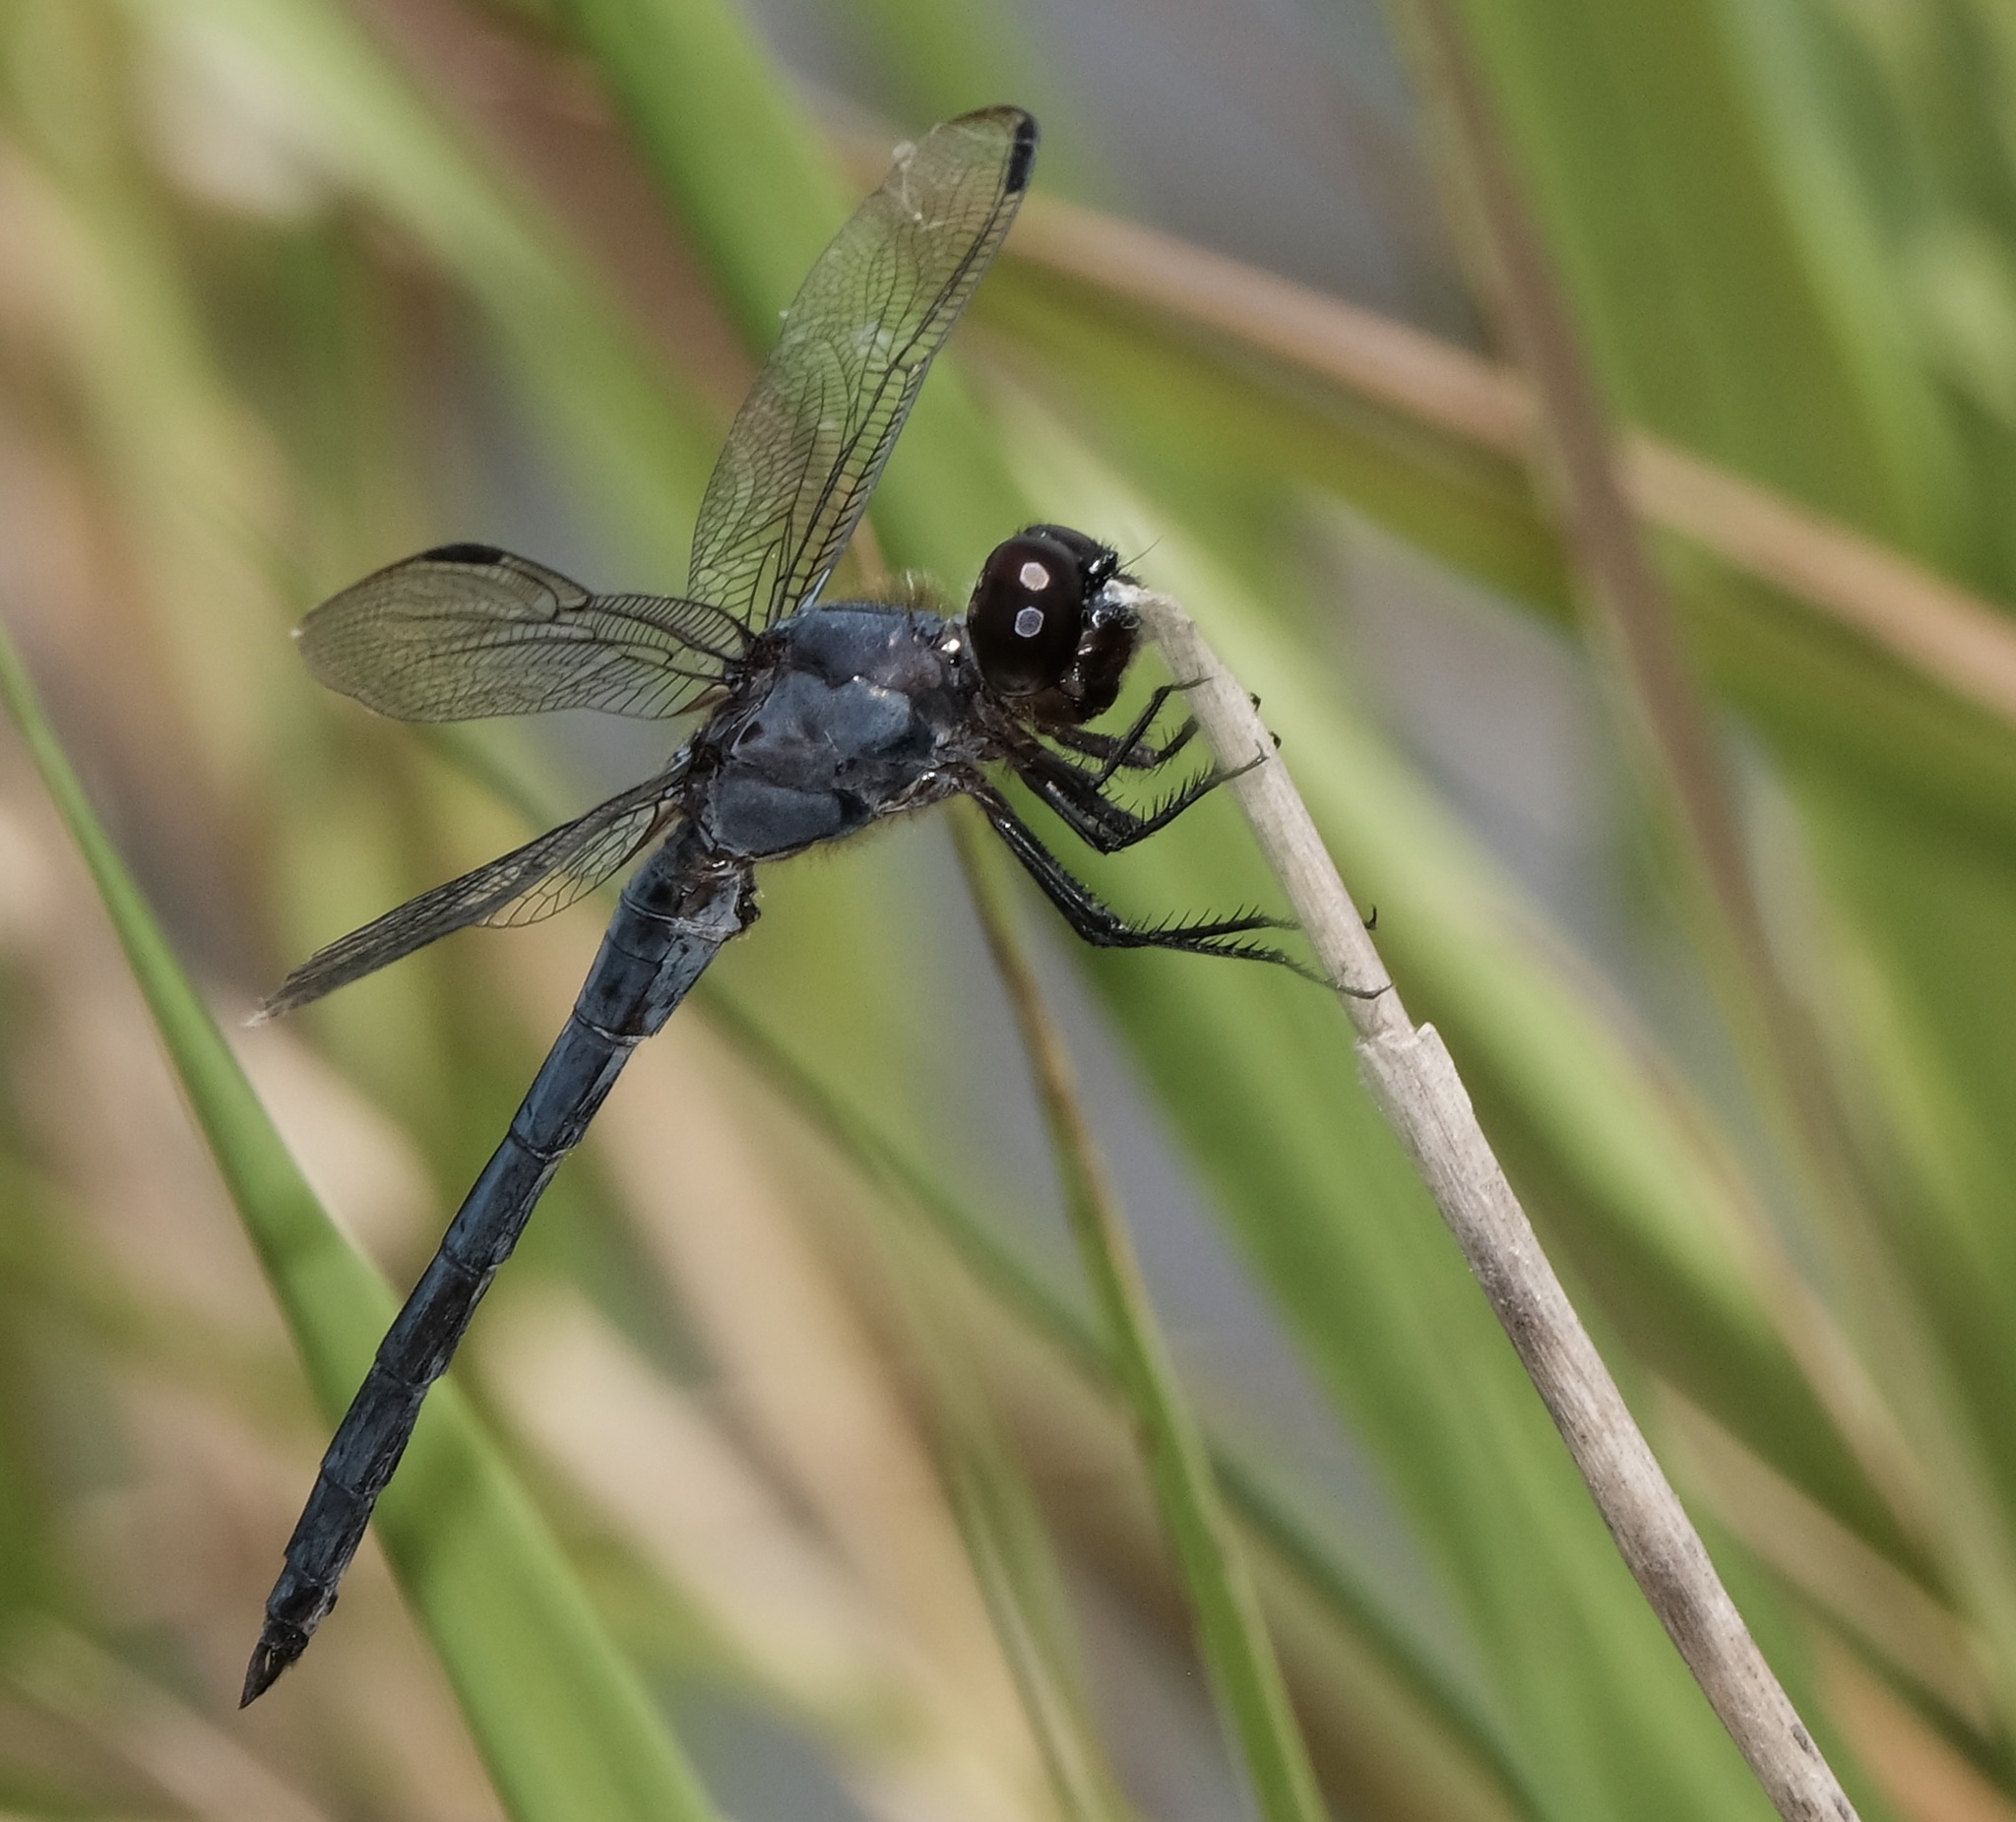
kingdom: Animalia
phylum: Arthropoda
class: Insecta
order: Odonata
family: Libellulidae
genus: Libellula
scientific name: Libellula incesta
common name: Slaty skimmer
